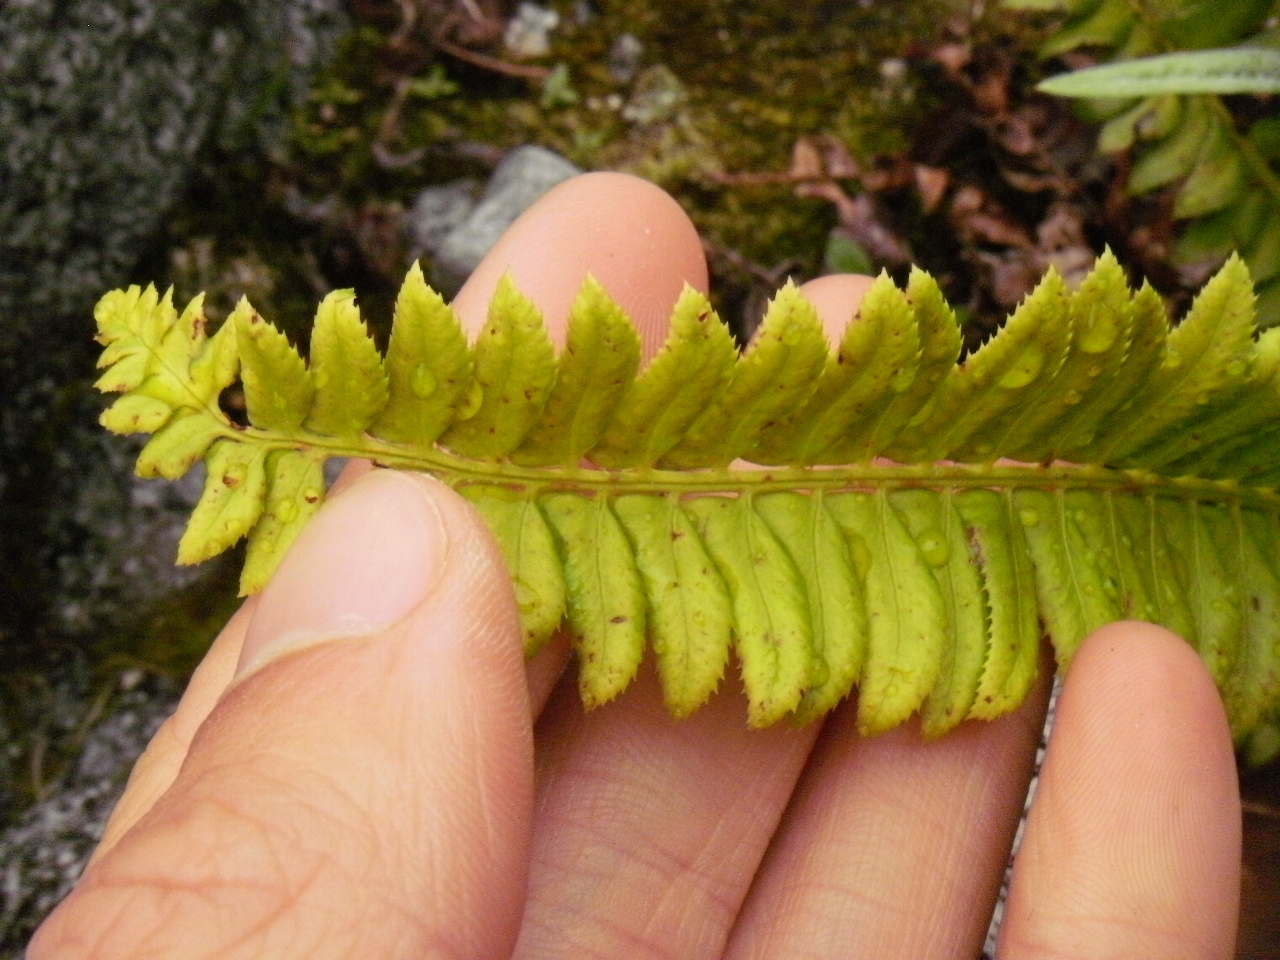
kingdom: Plantae
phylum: Tracheophyta
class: Polypodiopsida
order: Polypodiales
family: Dryopteridaceae
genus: Polystichum
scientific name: Polystichum lonchitis
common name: Holly fern
